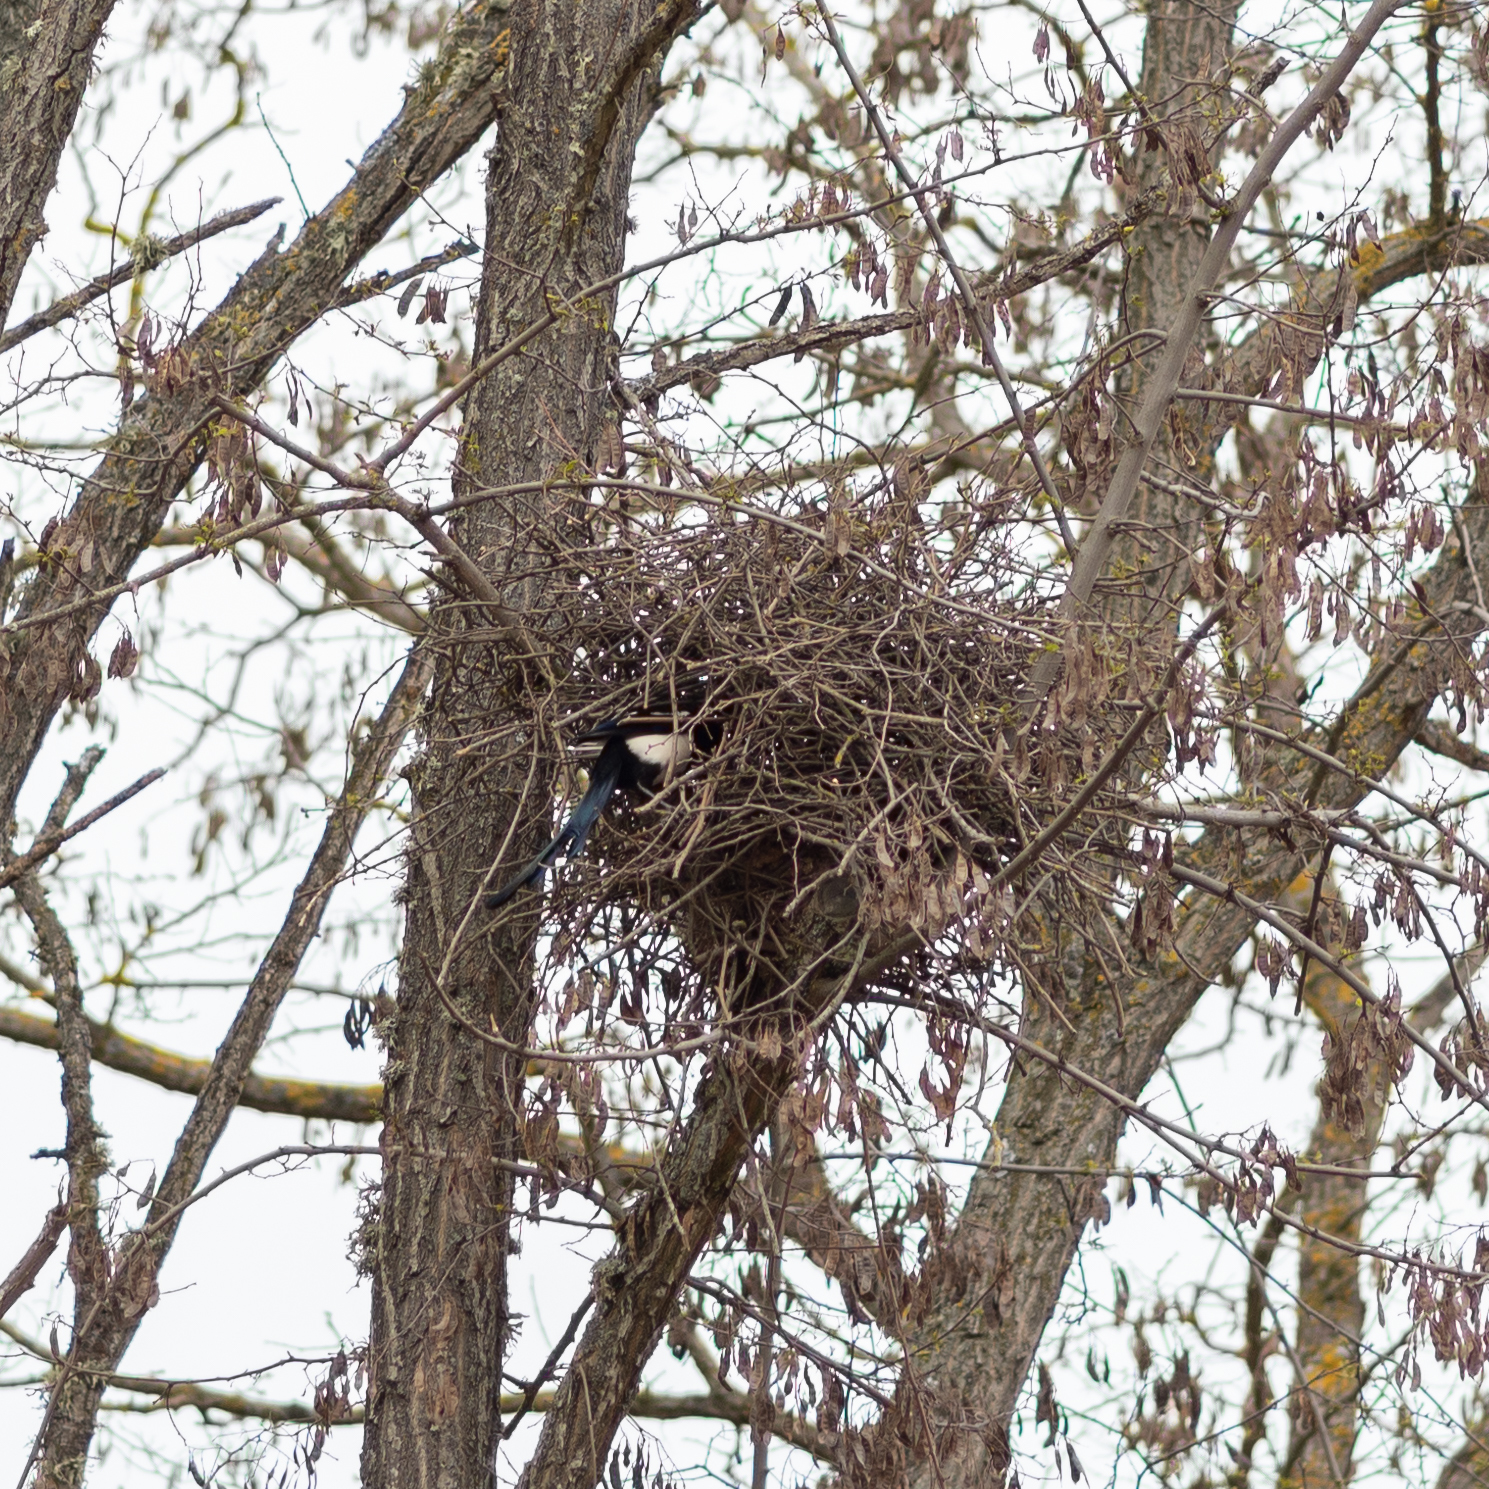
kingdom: Animalia
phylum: Chordata
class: Aves
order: Passeriformes
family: Corvidae
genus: Pica
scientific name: Pica pica
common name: Eurasian magpie
